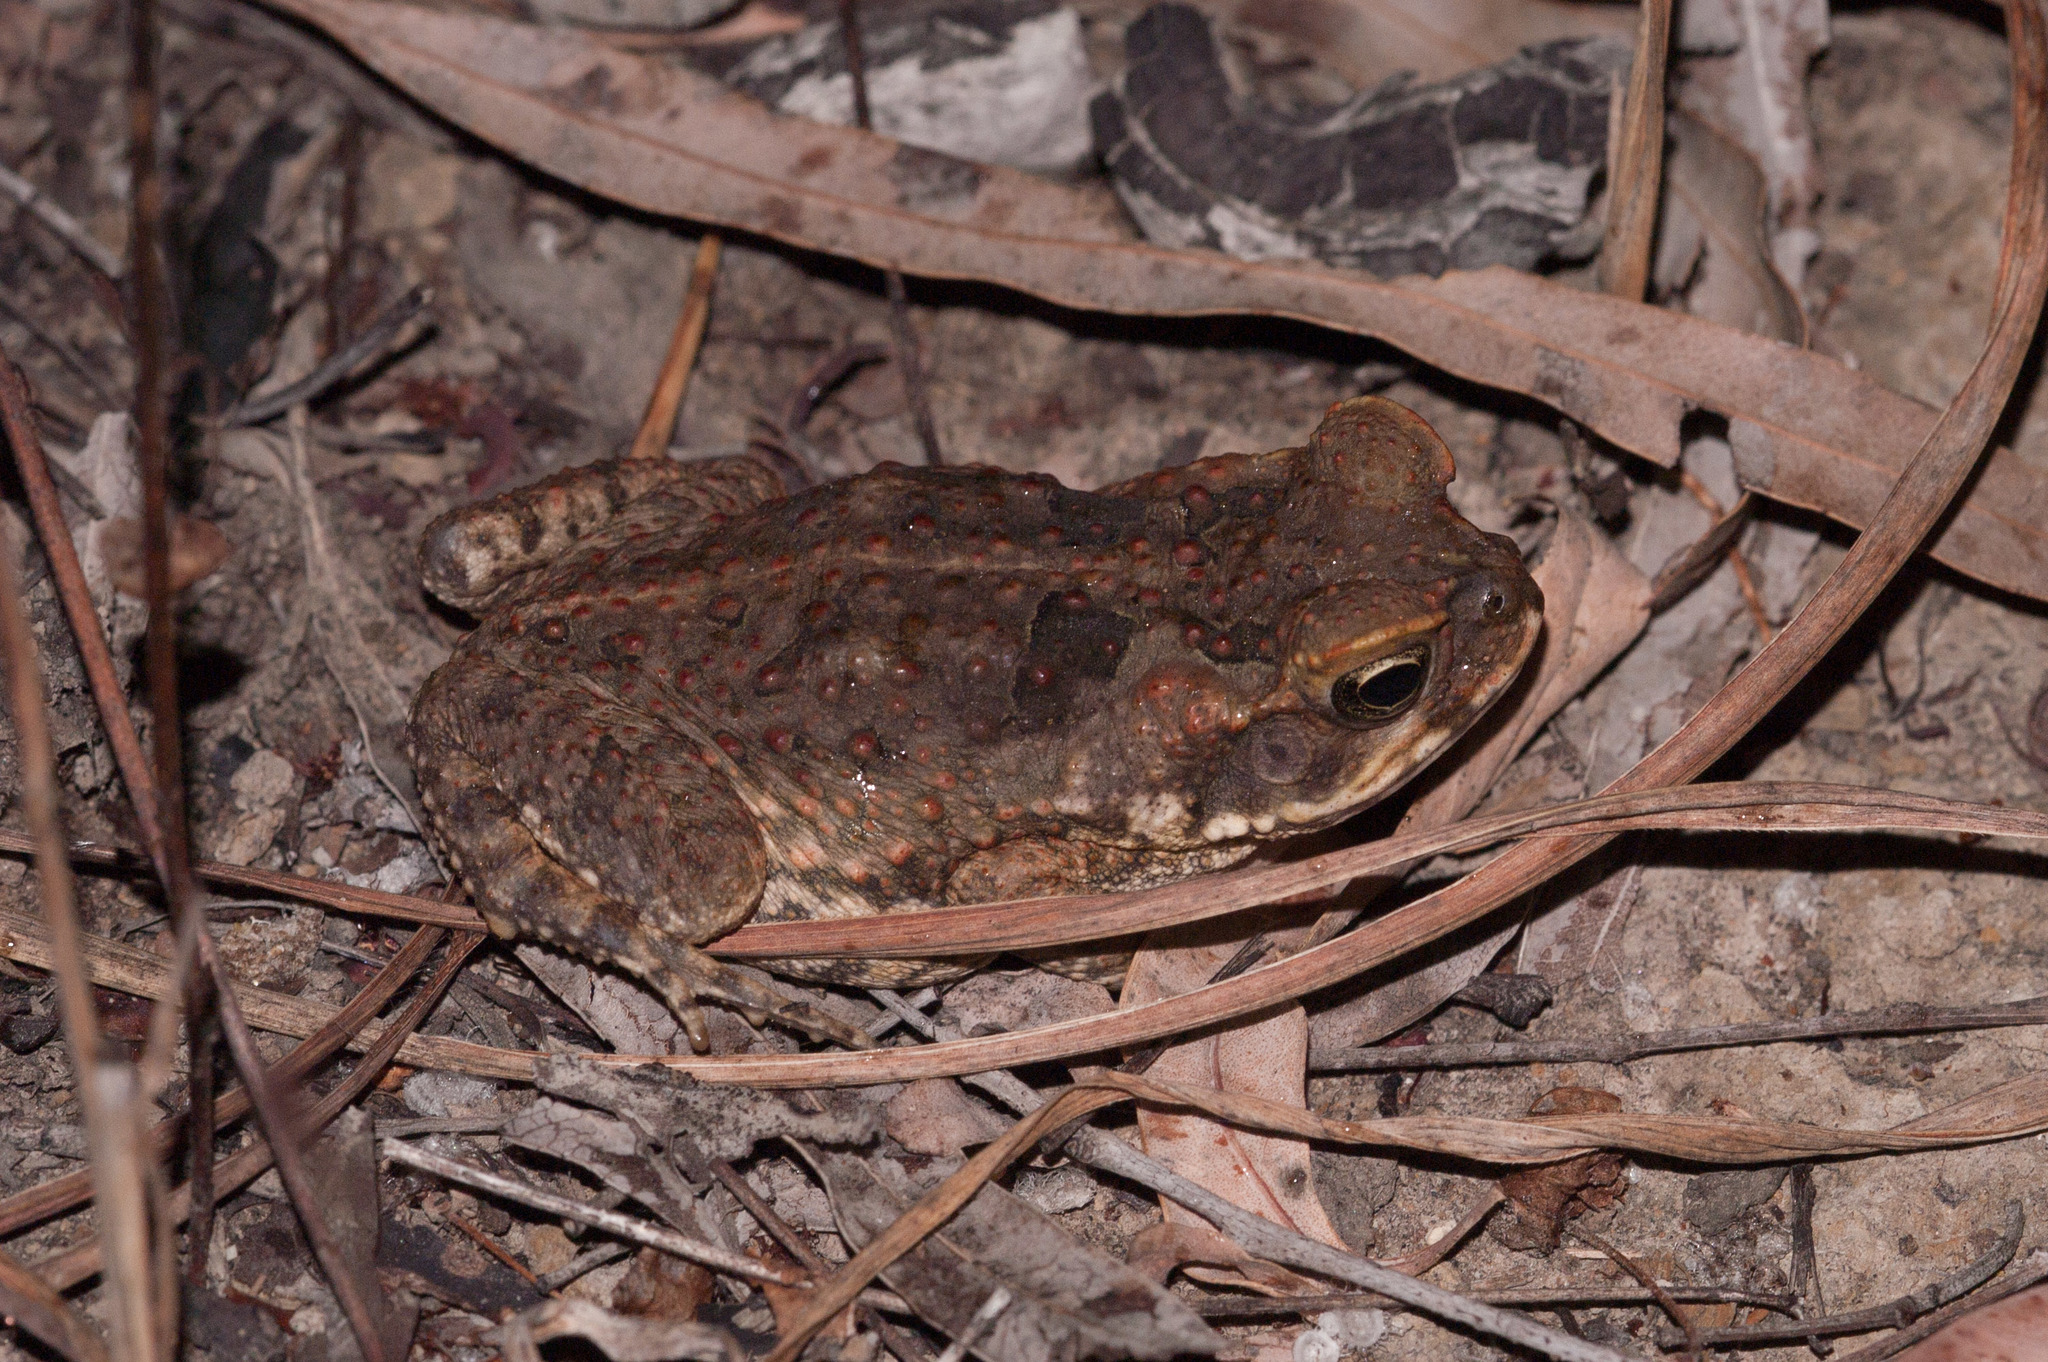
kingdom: Animalia
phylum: Chordata
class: Amphibia
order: Anura
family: Bufonidae
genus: Rhinella
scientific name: Rhinella marina
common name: Cane toad
